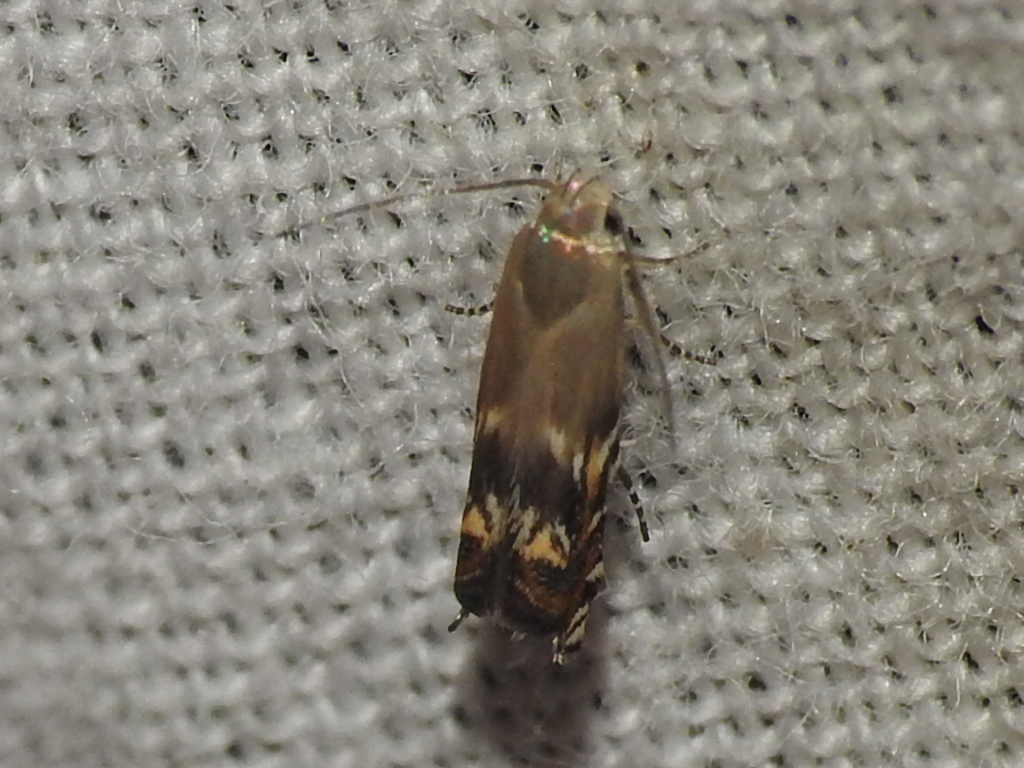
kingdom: Animalia
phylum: Arthropoda
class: Insecta
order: Lepidoptera
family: Gelechiidae
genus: Calliprora
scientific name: Calliprora sexstrigella
